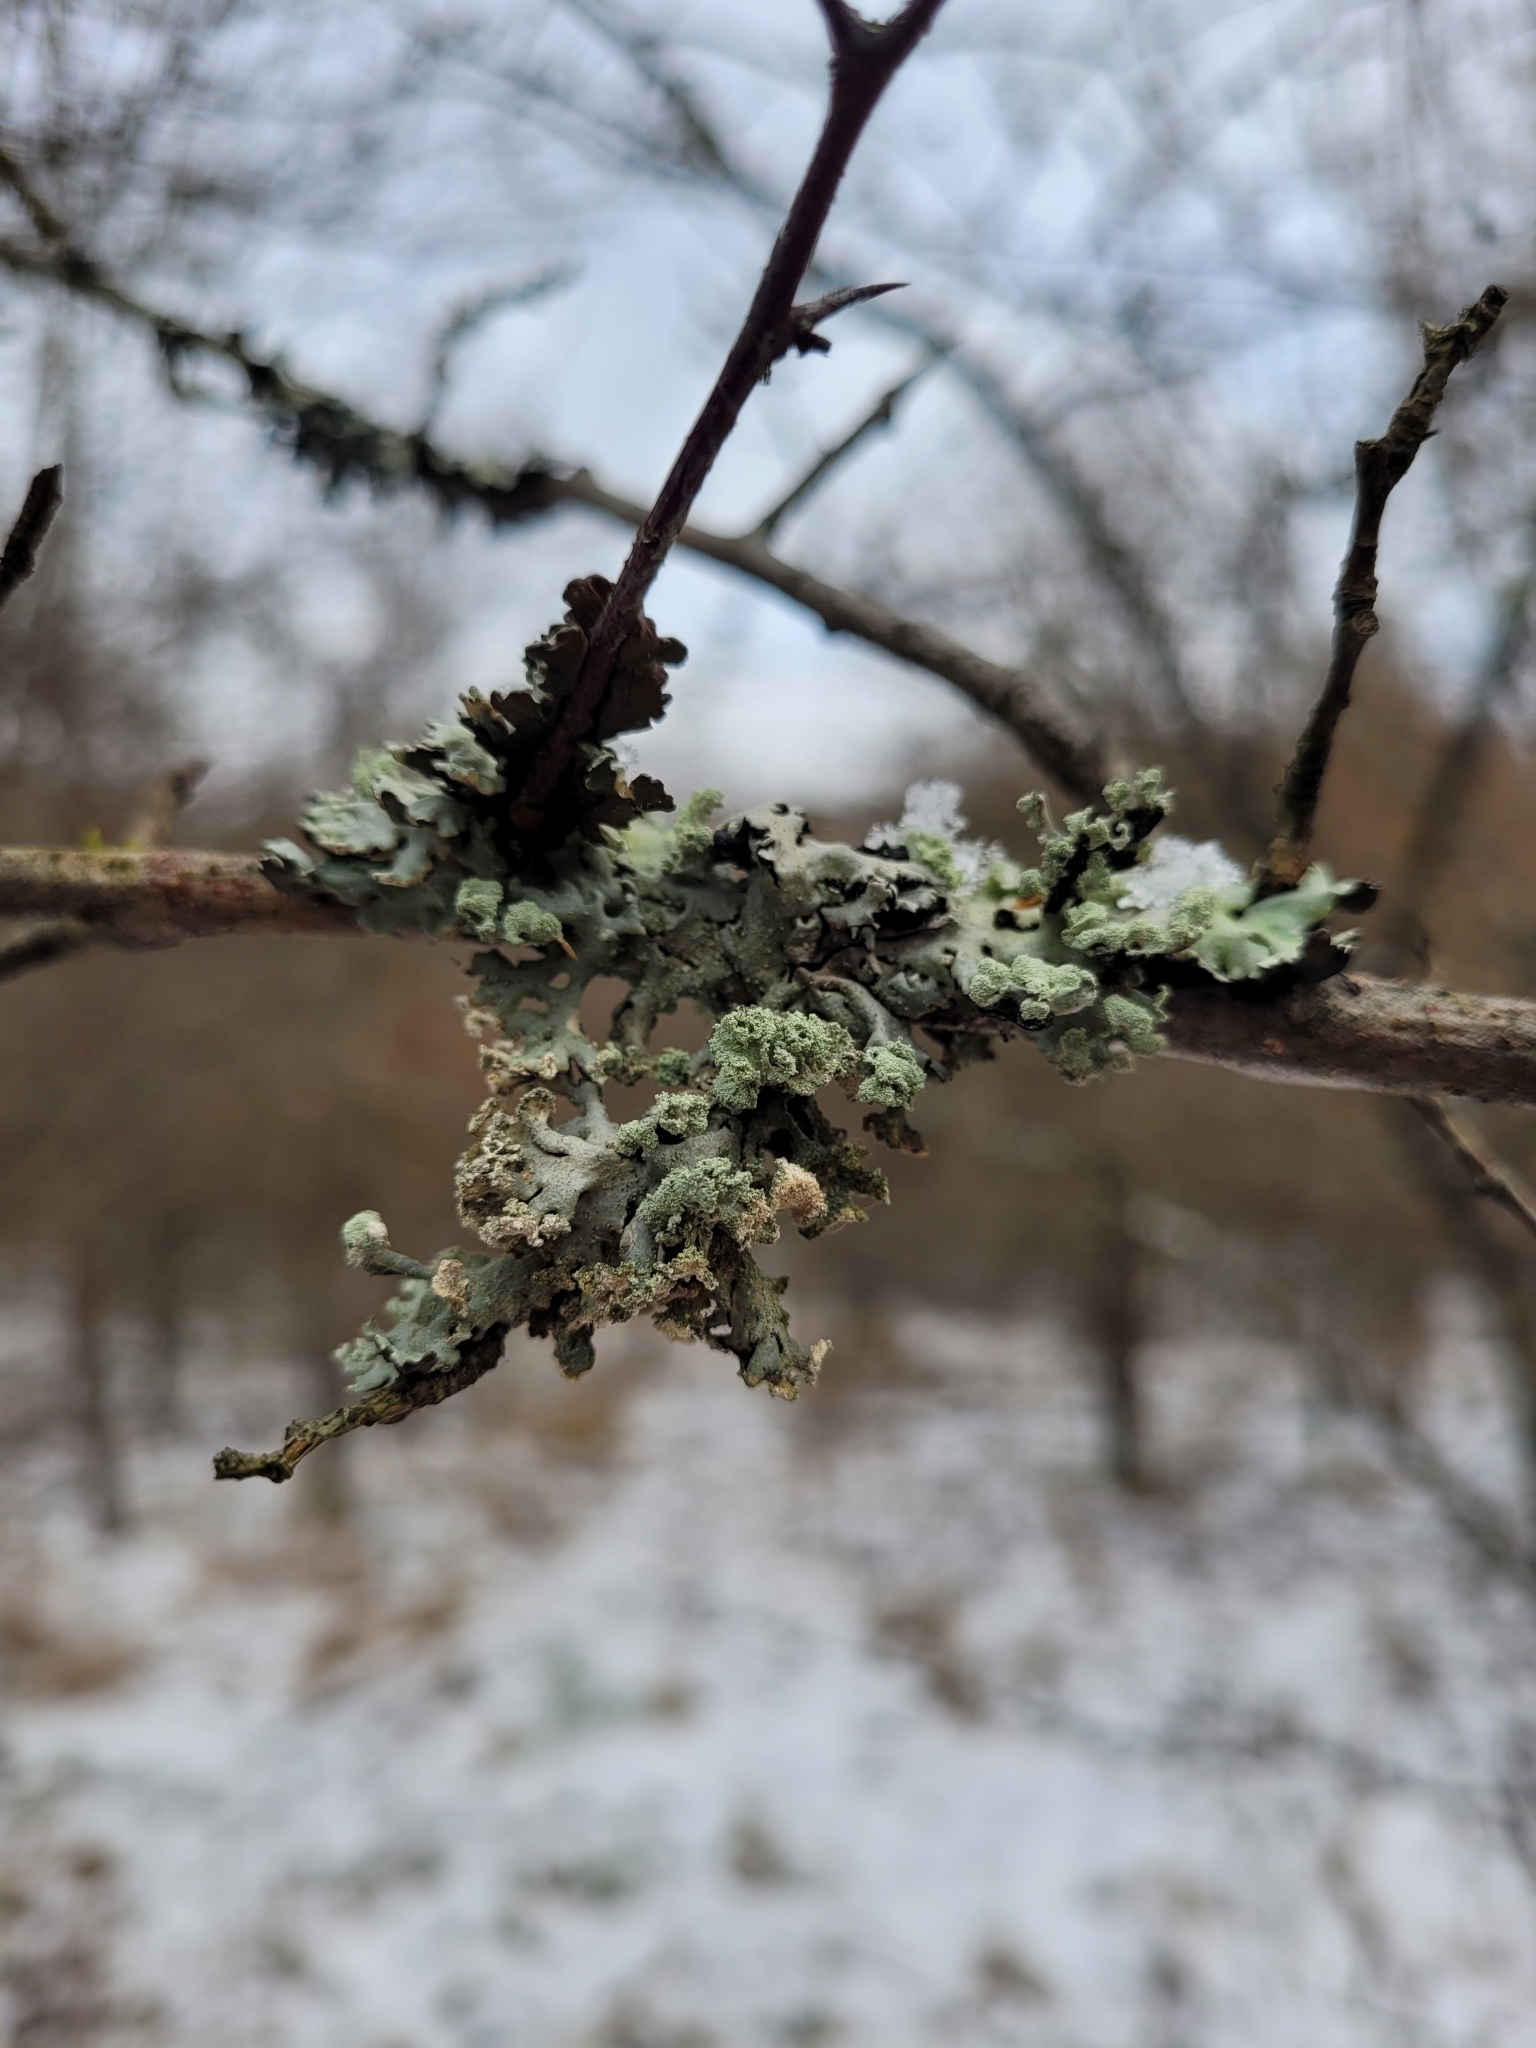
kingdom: Fungi
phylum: Ascomycota
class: Lecanoromycetes
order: Lecanorales
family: Parmeliaceae
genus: Hypogymnia
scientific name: Hypogymnia physodes
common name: Dark crottle
